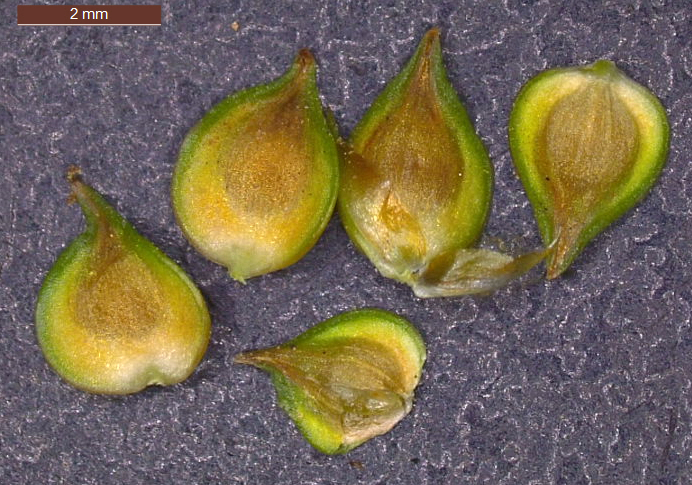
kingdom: Plantae
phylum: Tracheophyta
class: Liliopsida
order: Poales
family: Cyperaceae
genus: Carex
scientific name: Carex triangularis
